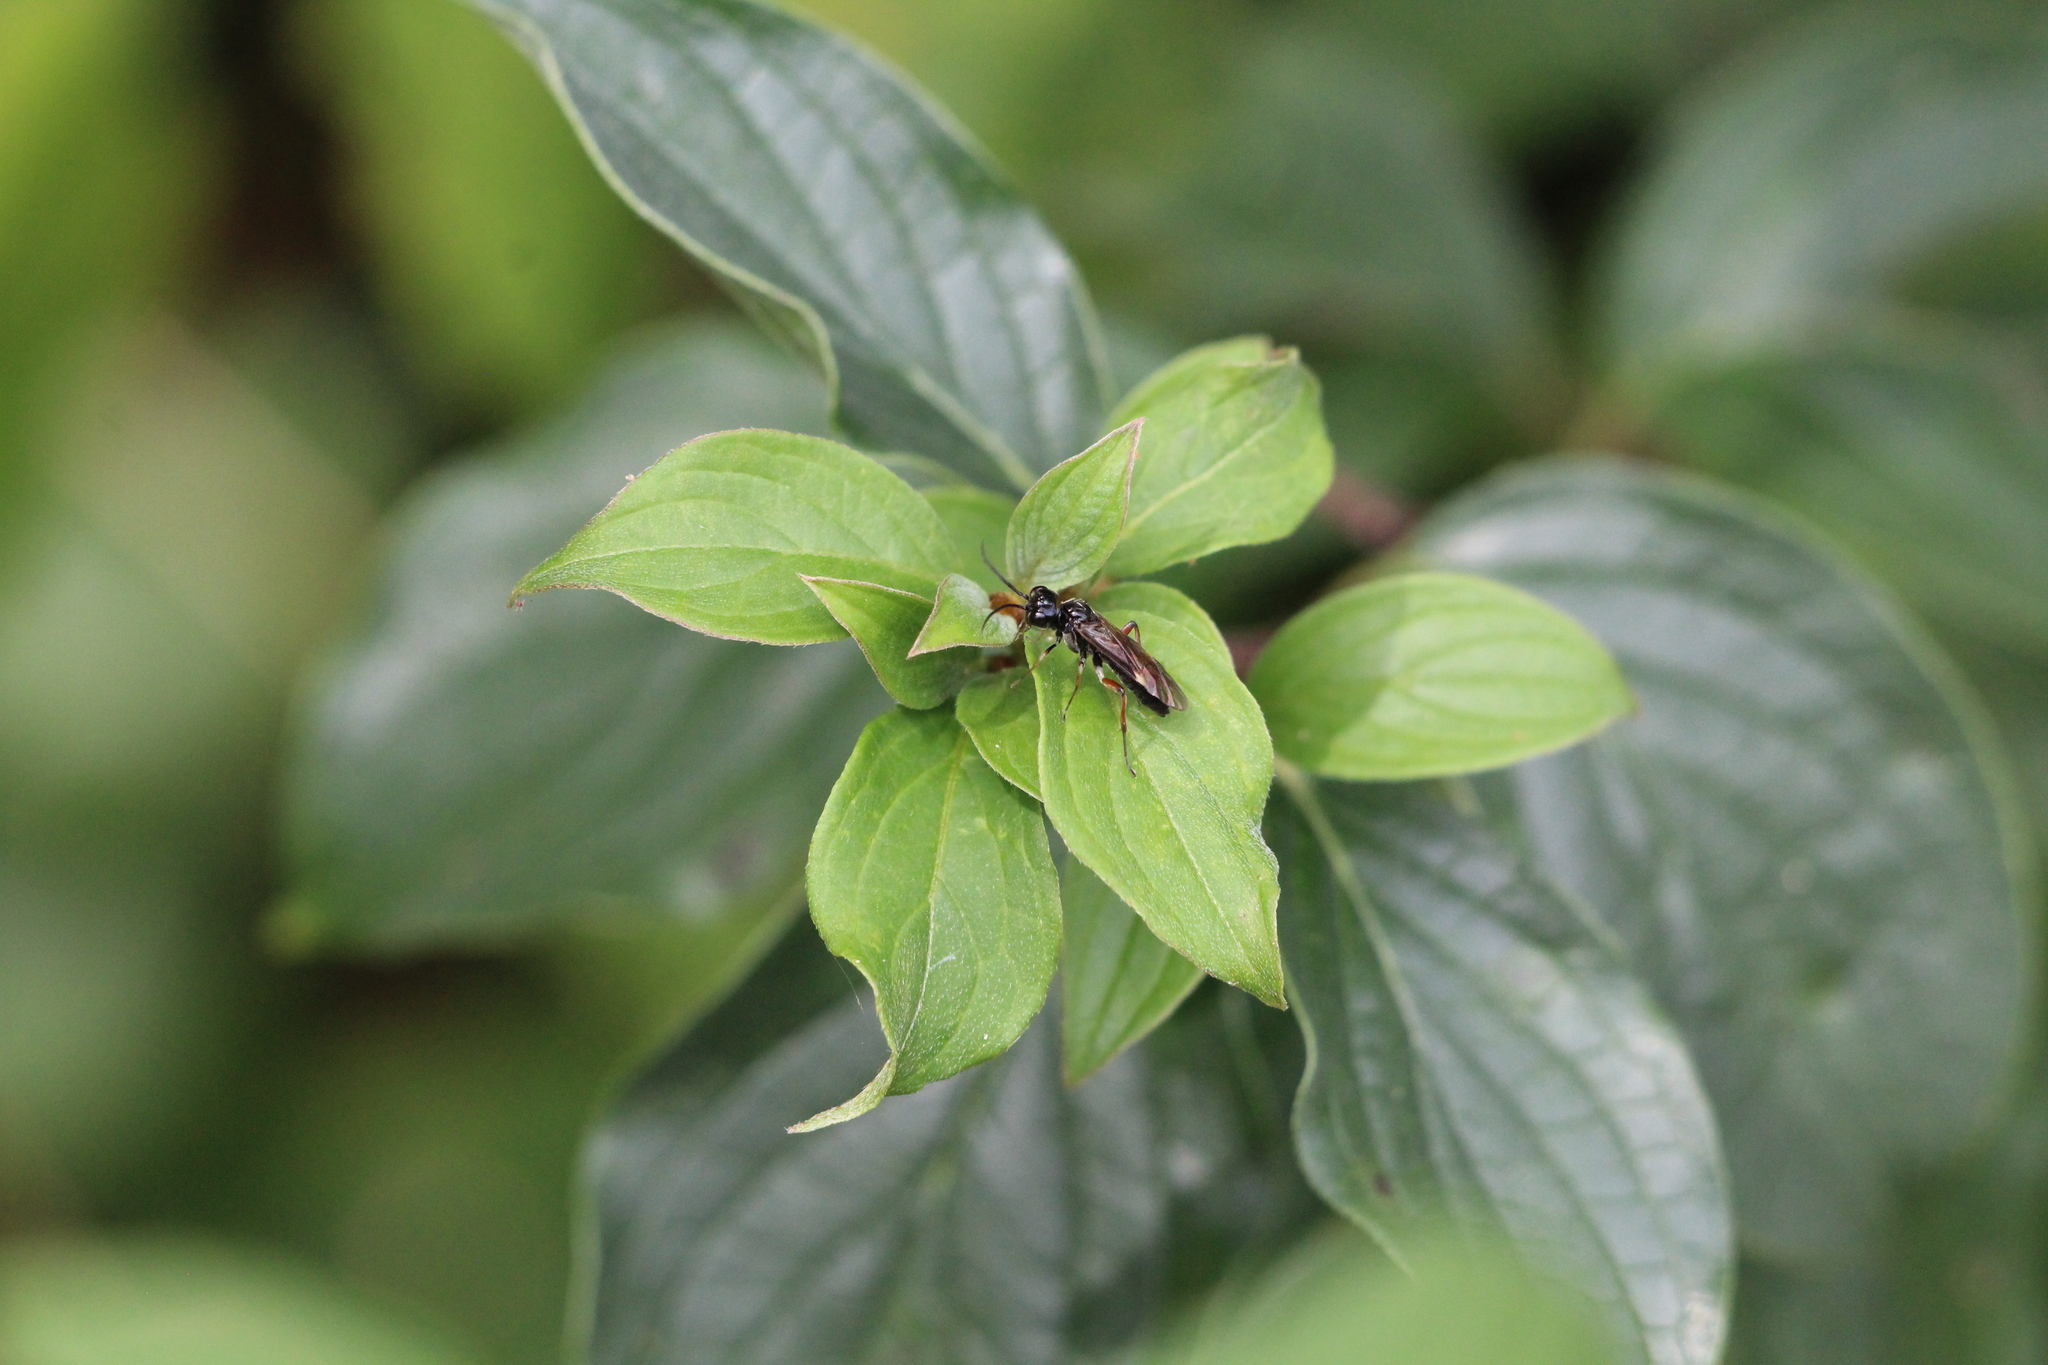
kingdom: Animalia
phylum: Arthropoda
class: Insecta
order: Hymenoptera
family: Tenthredinidae
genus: Allantus
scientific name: Allantus melanarius
